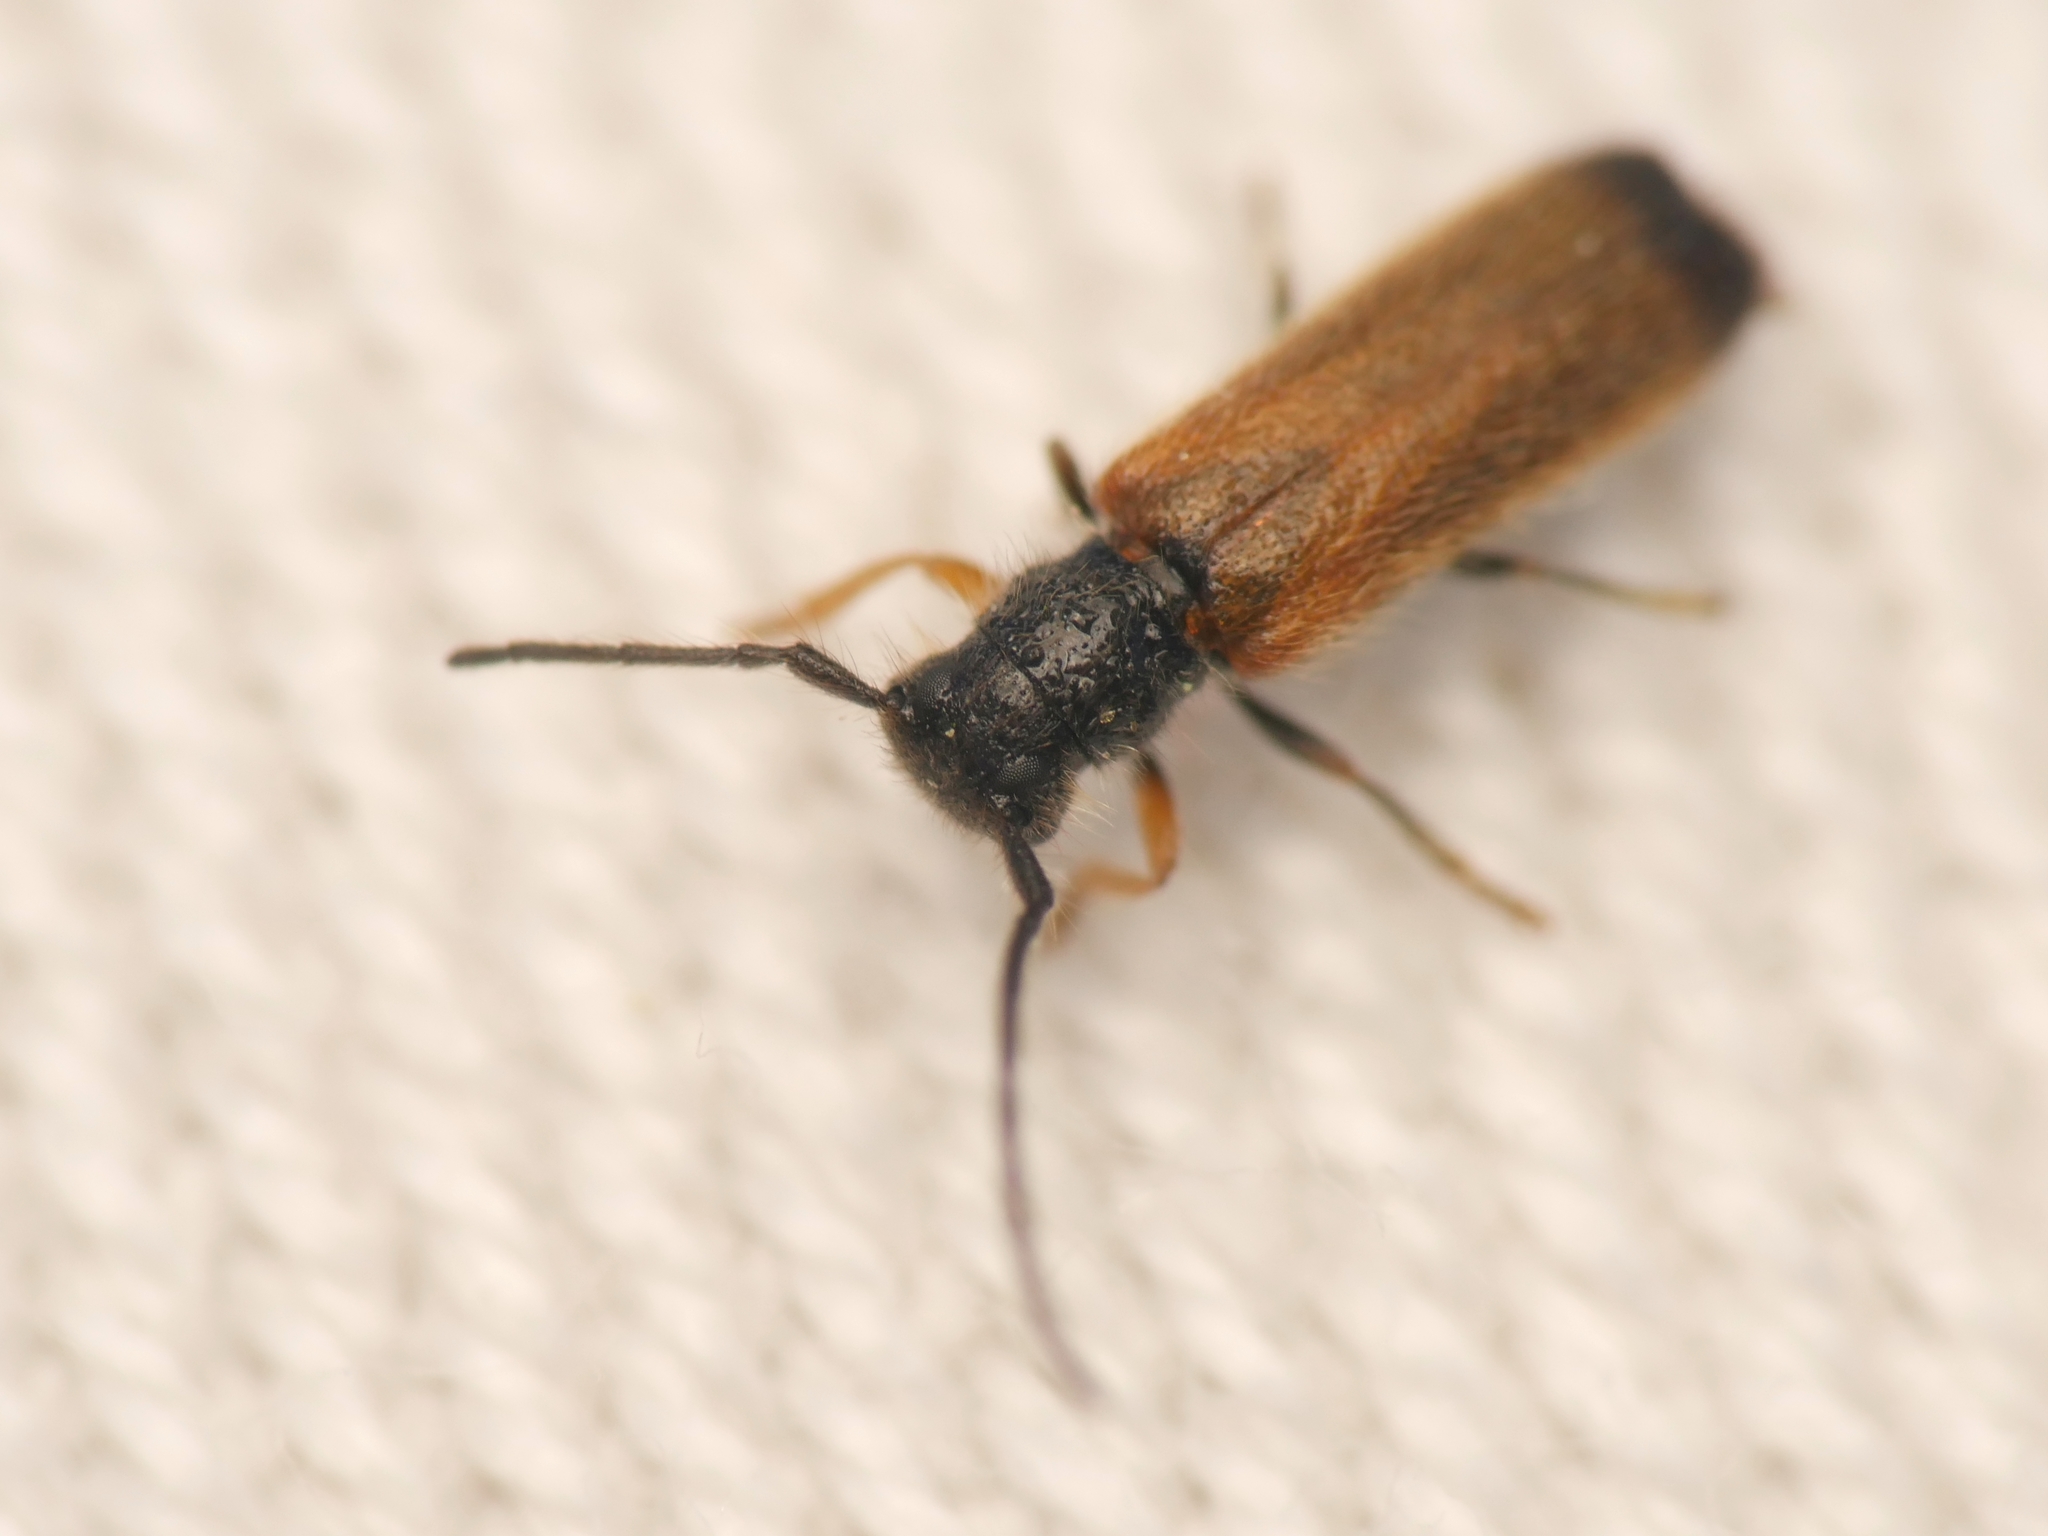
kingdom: Animalia
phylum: Arthropoda
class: Insecta
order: Coleoptera
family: Cerambycidae
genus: Tetrops
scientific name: Tetrops praeustus
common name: Plum beetle
